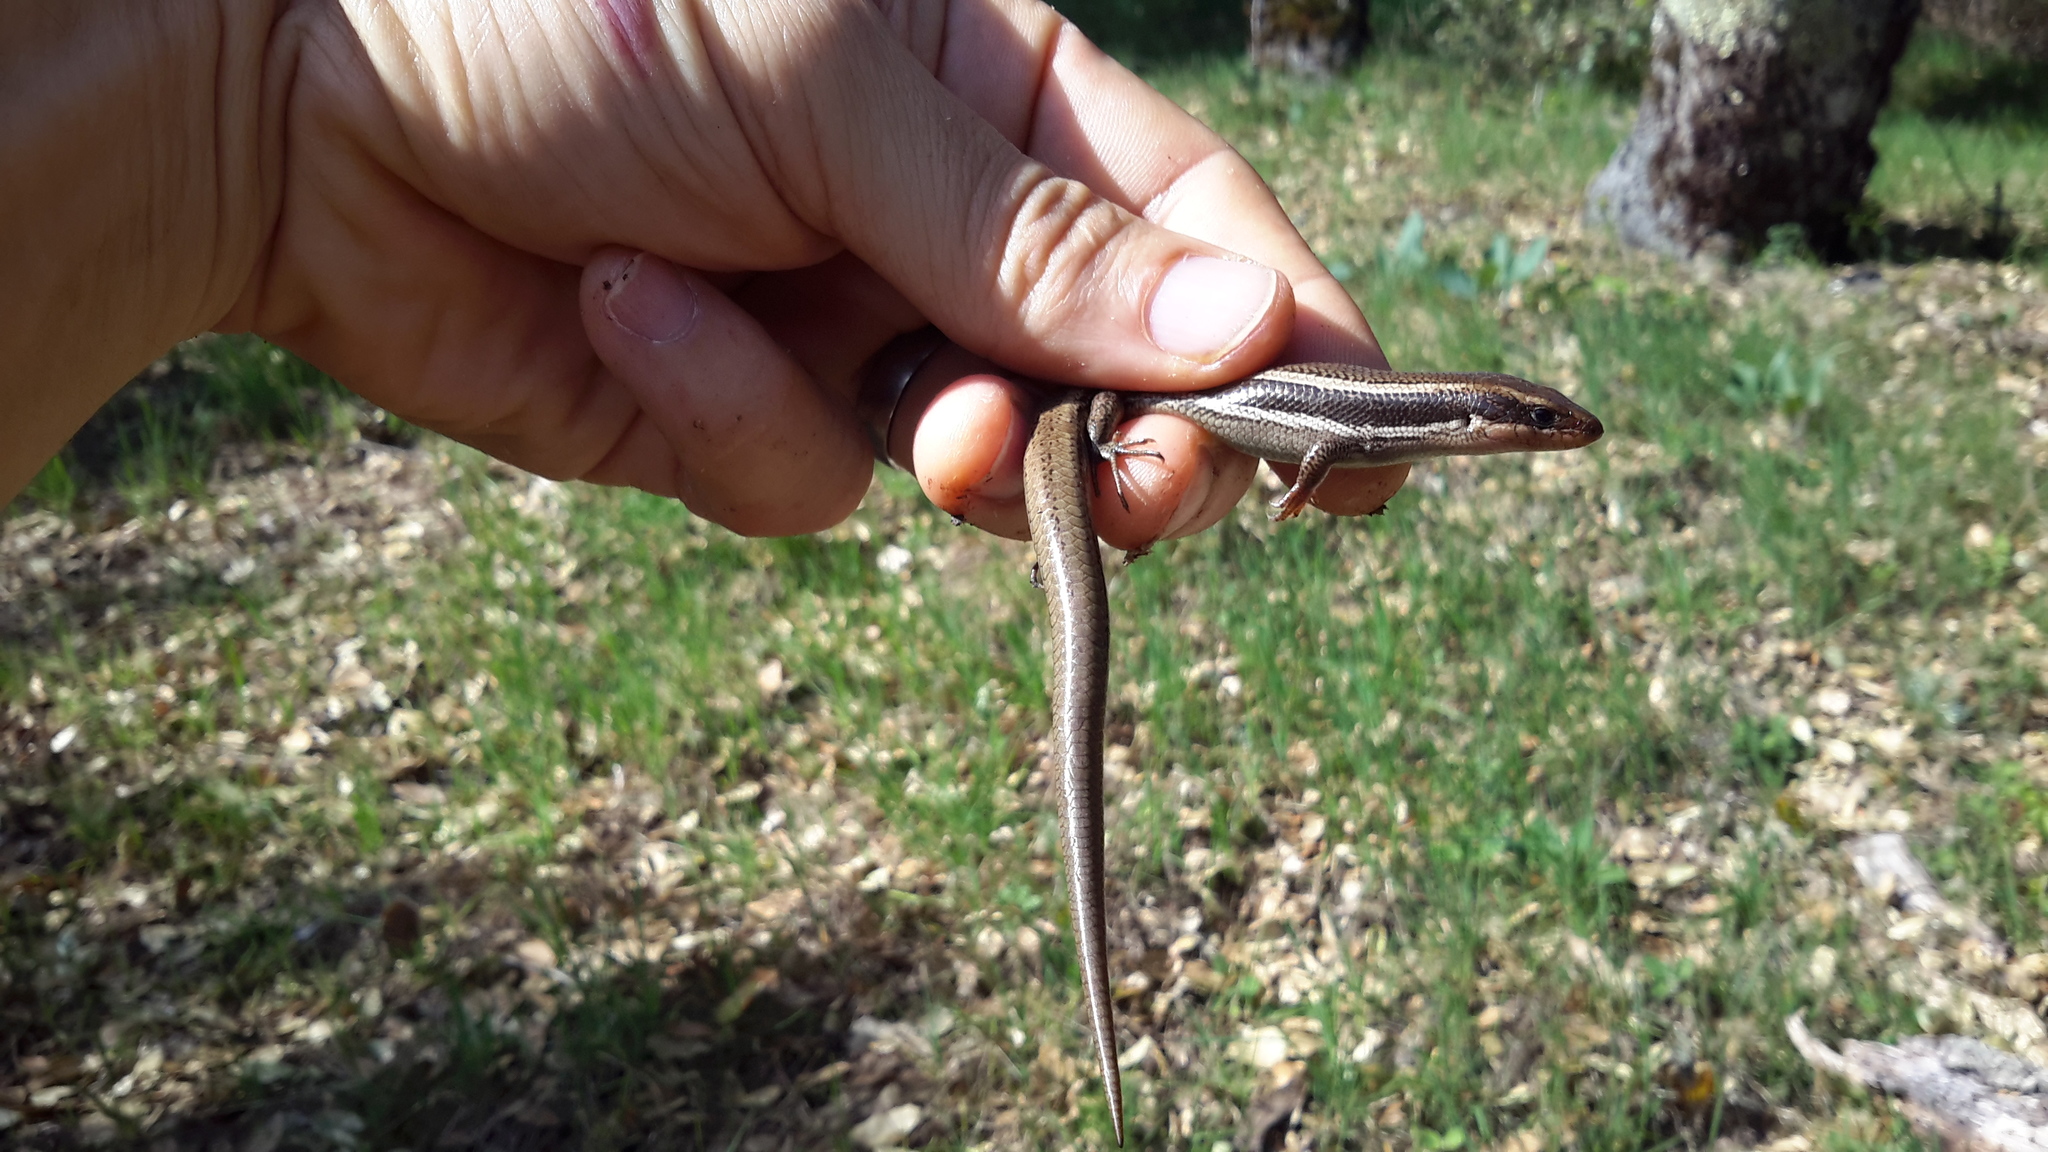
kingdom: Animalia
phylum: Chordata
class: Squamata
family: Scincidae
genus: Plestiodon
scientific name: Plestiodon skiltonianus
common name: Coronado island skink [interparietalis]
